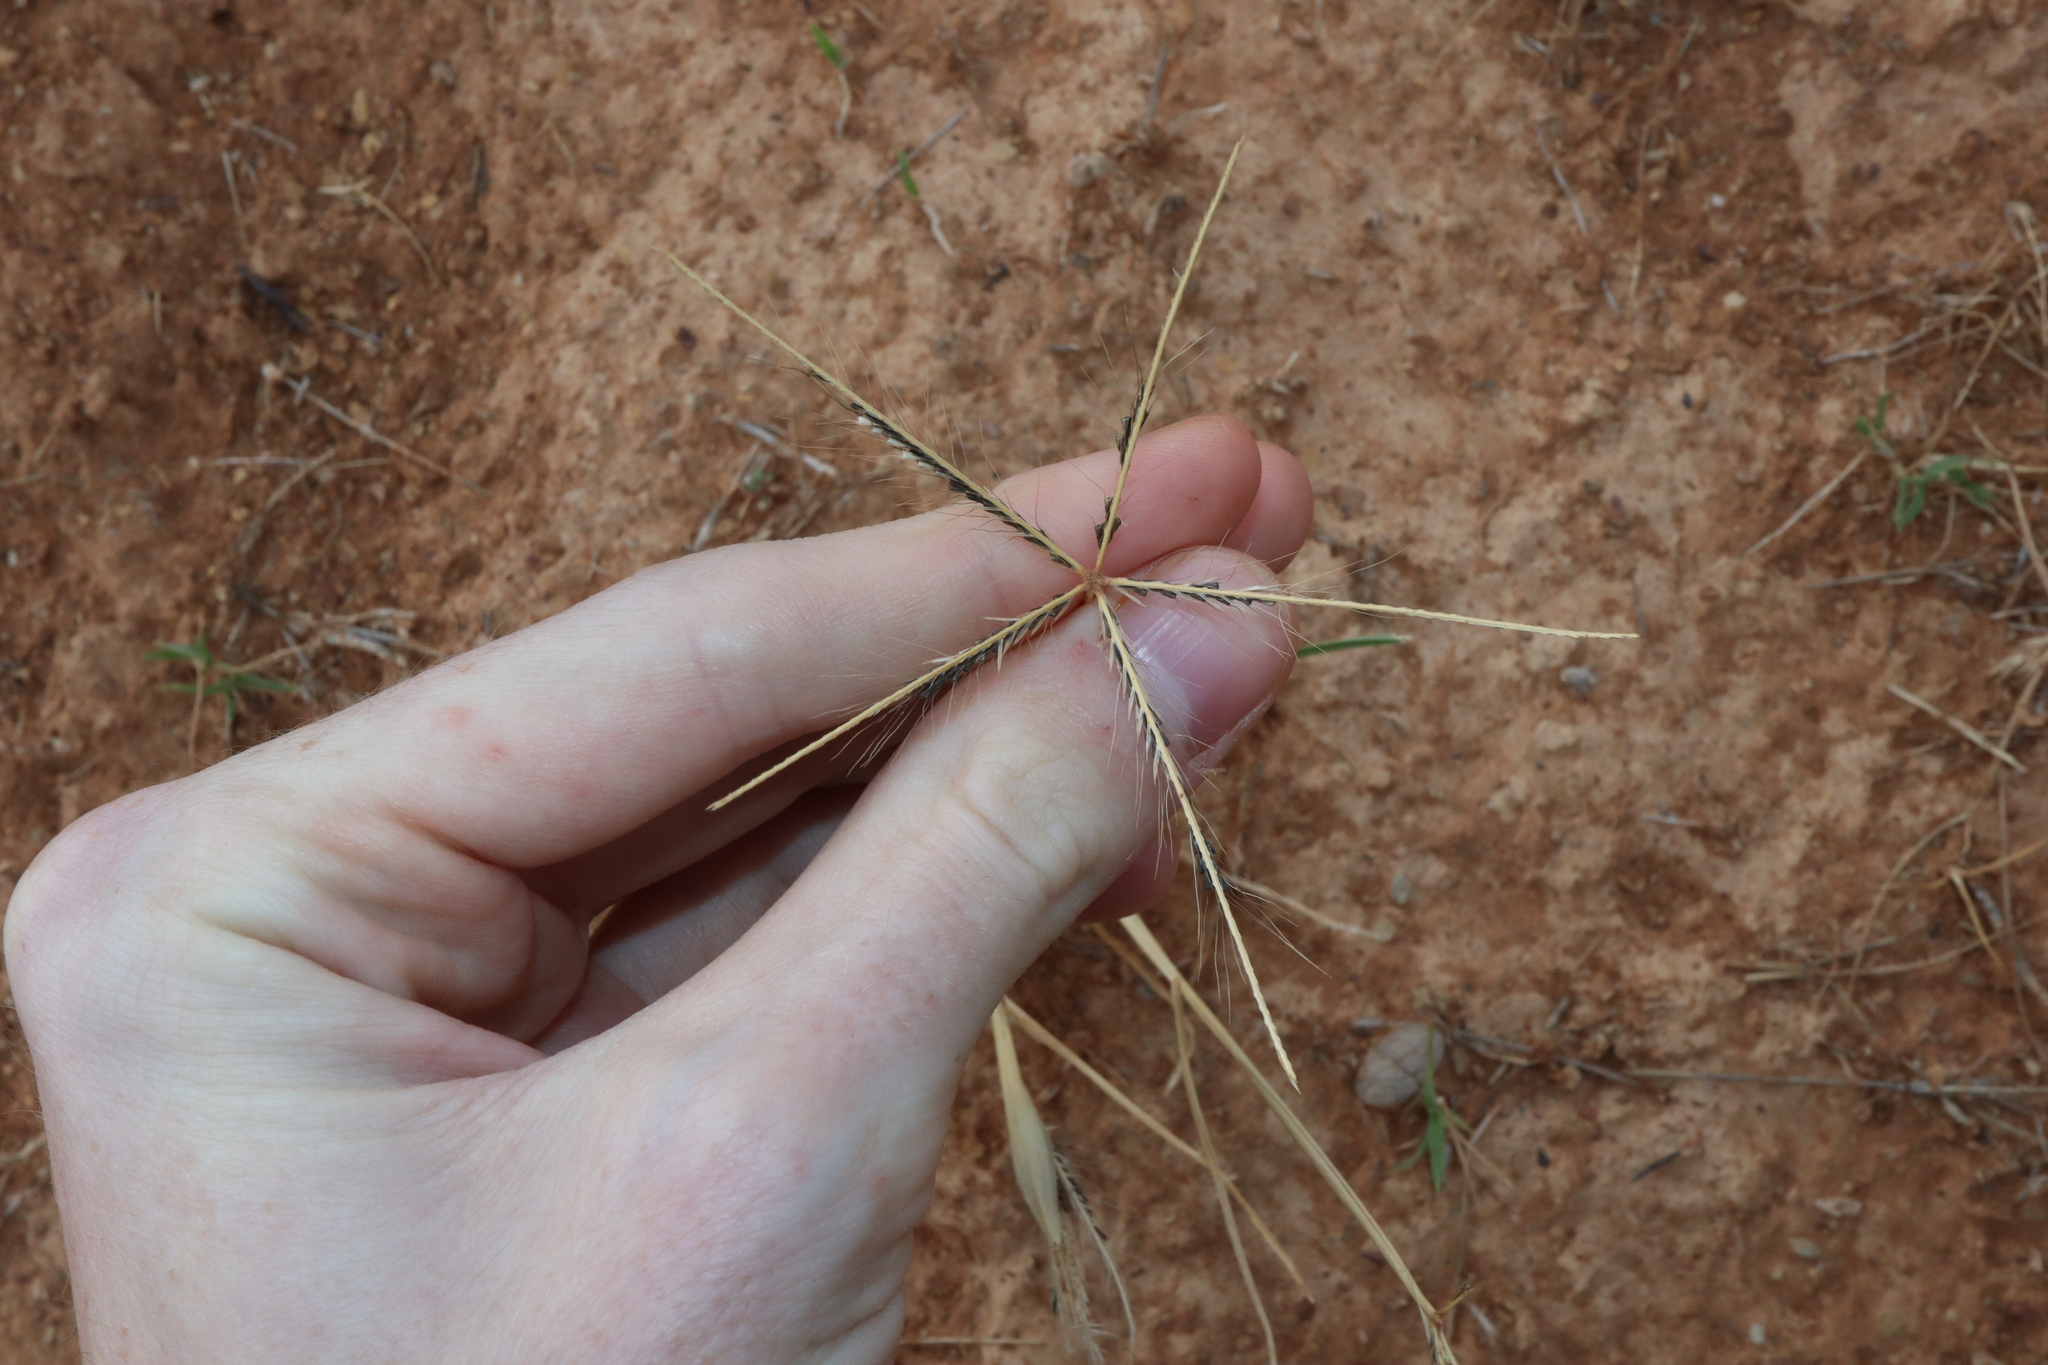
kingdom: Plantae
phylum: Tracheophyta
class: Liliopsida
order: Poales
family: Poaceae
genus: Chloris
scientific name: Chloris truncata
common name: Windmill-grass
